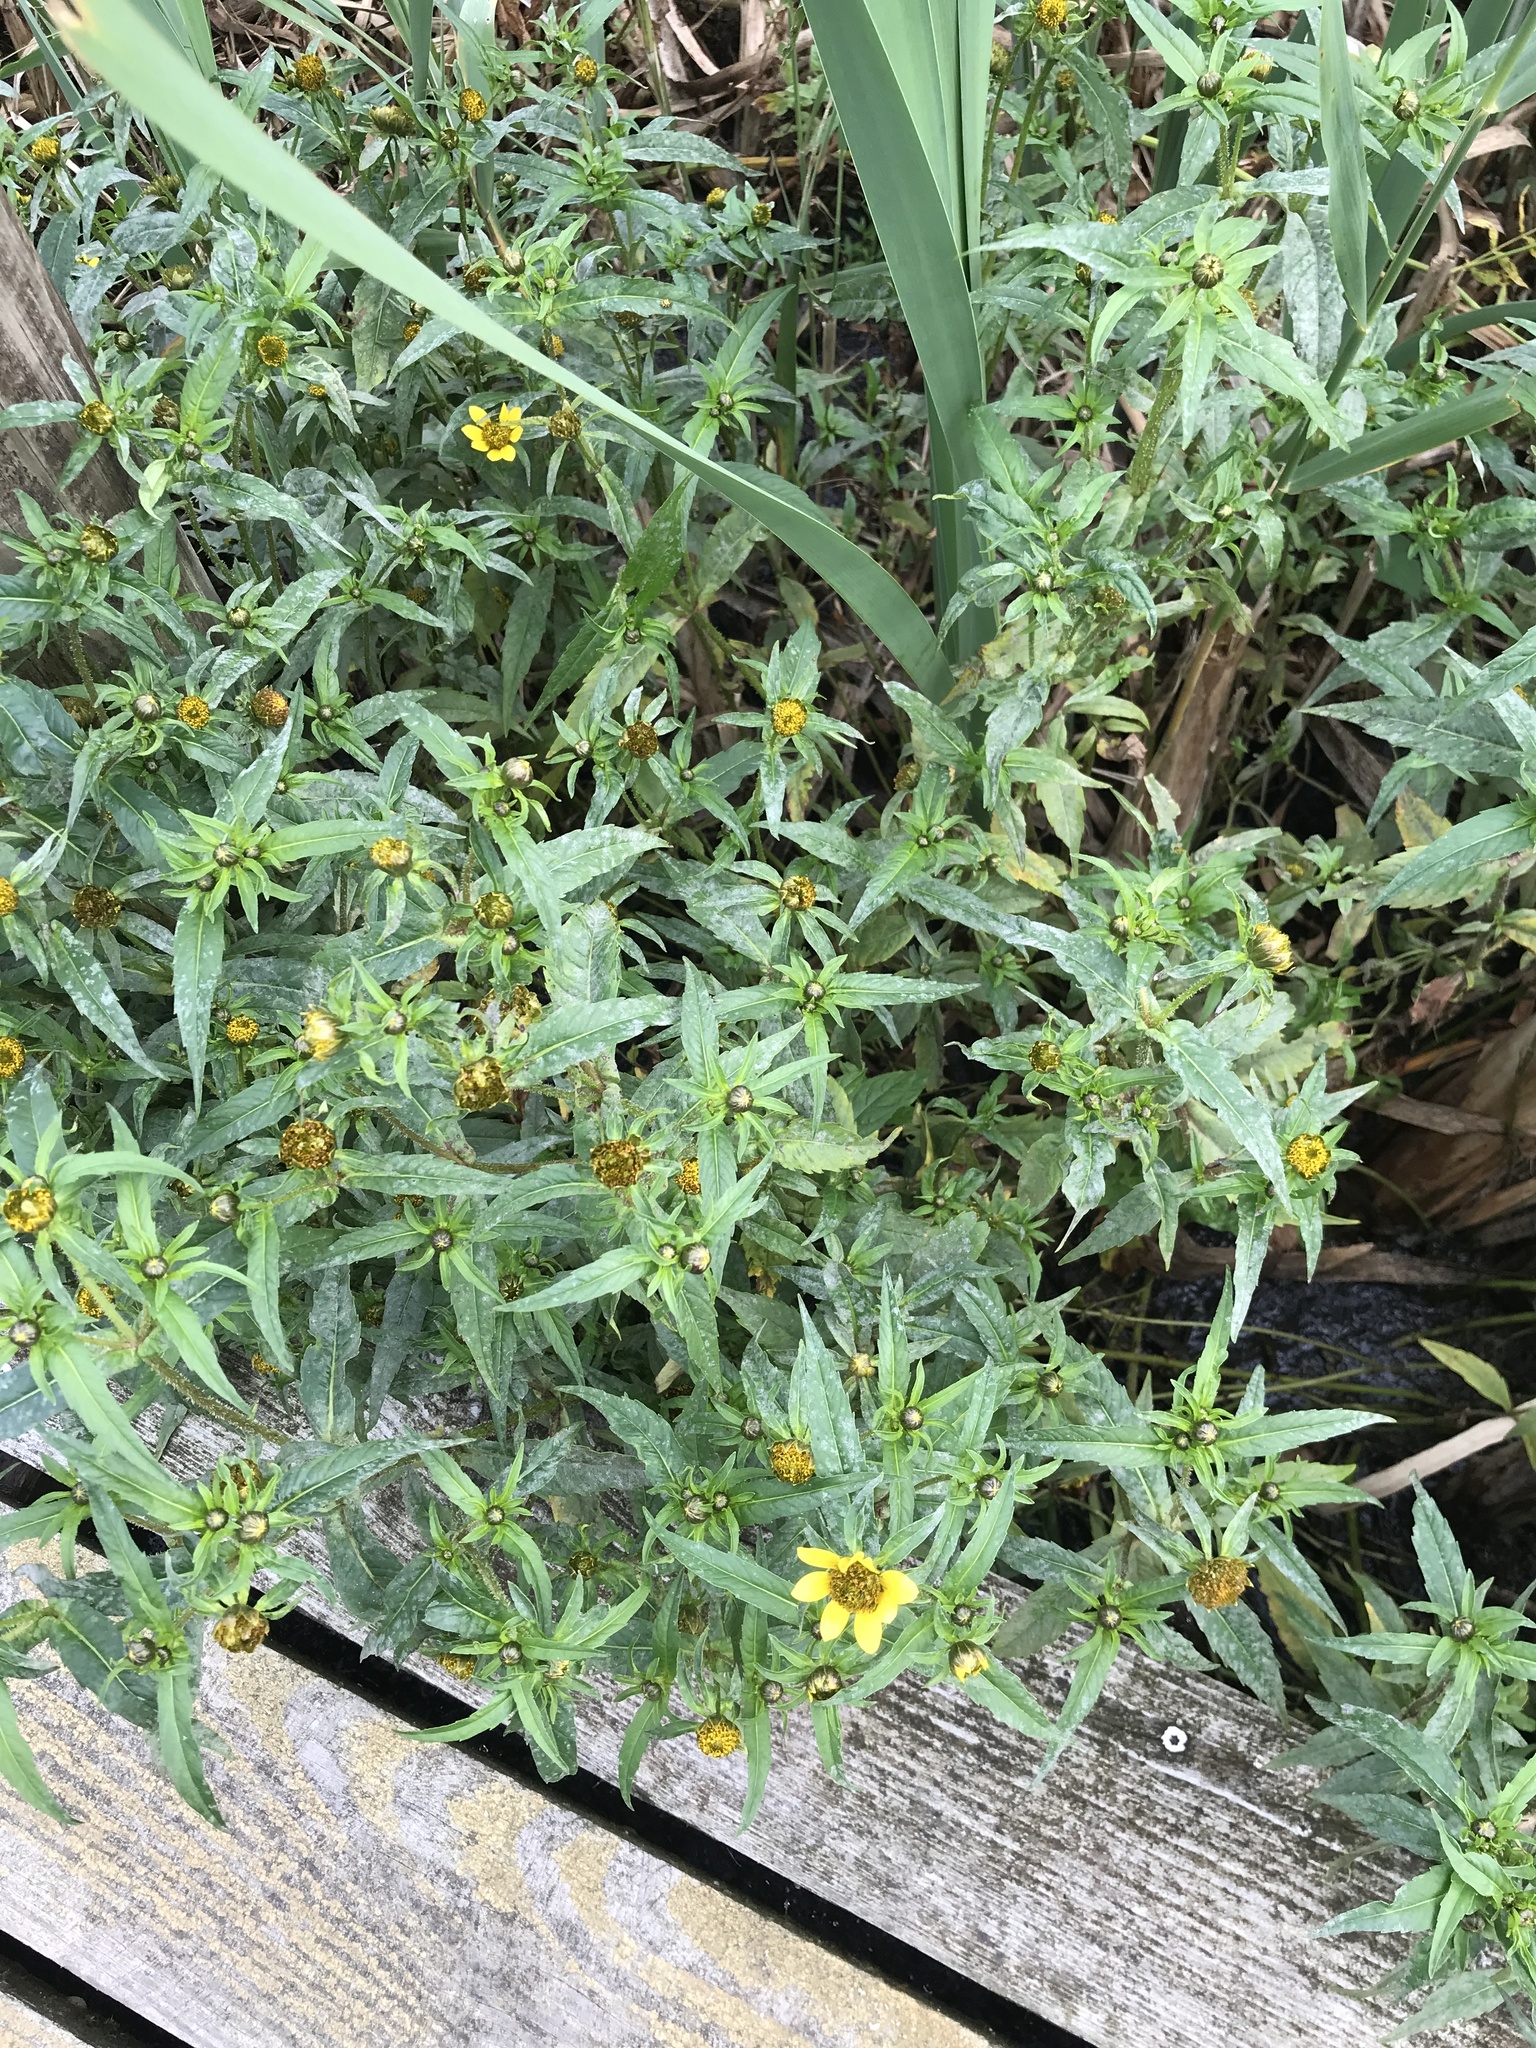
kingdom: Plantae
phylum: Tracheophyta
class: Magnoliopsida
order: Asterales
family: Asteraceae
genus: Bidens
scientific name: Bidens cernua
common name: Nodding bur-marigold
